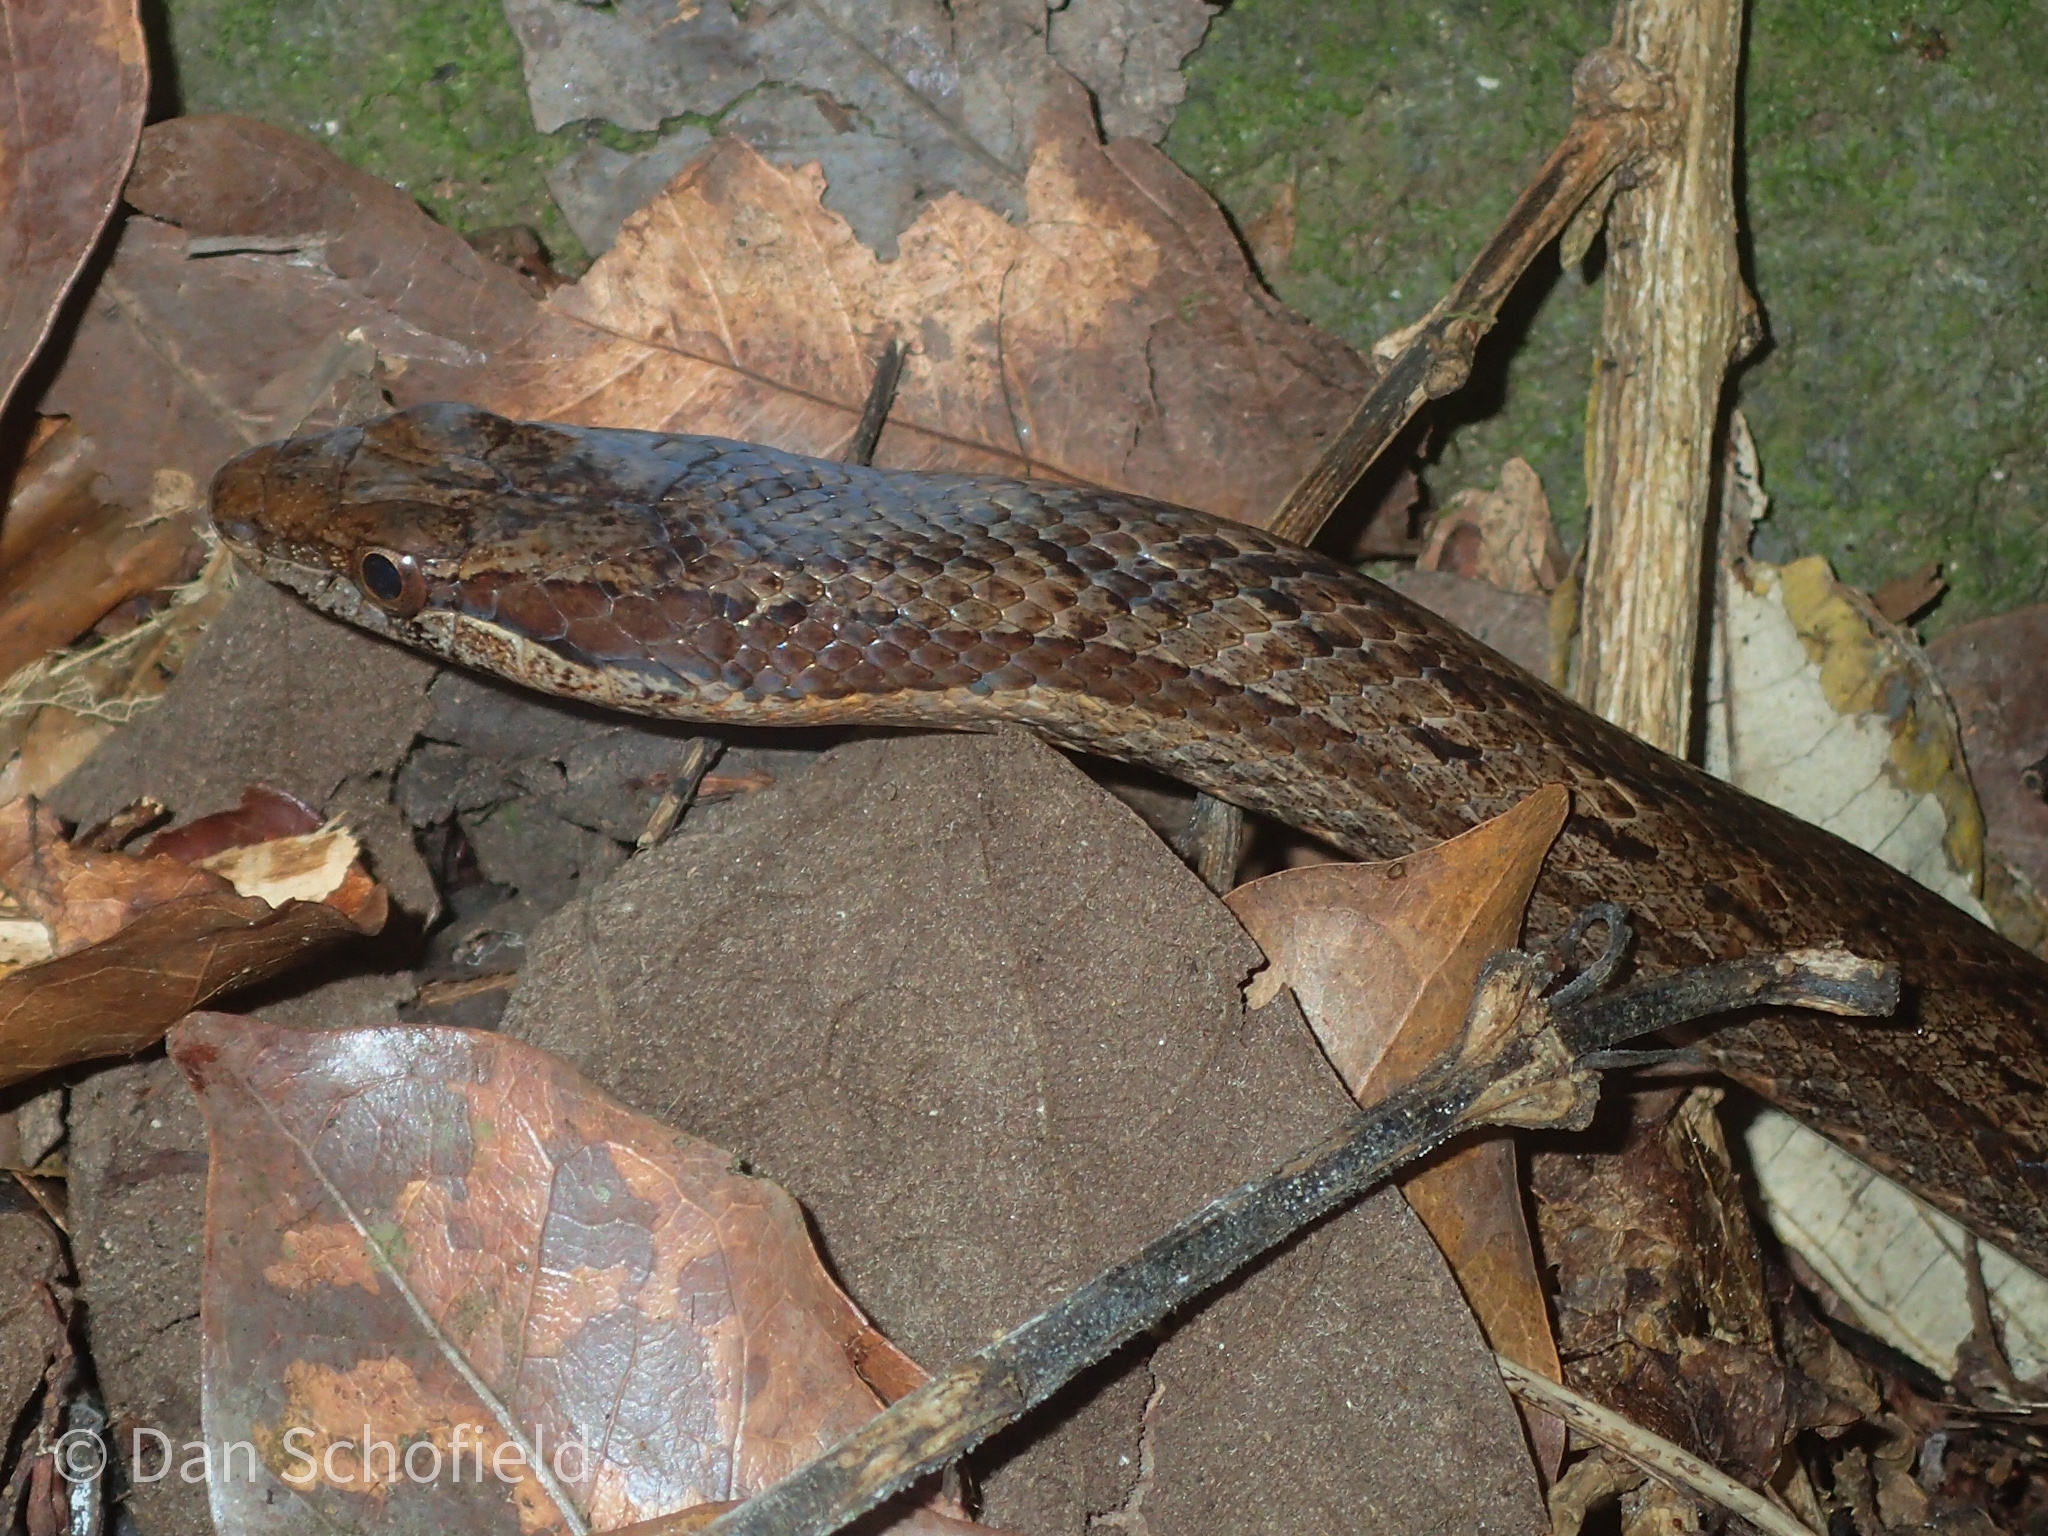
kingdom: Animalia
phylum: Chordata
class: Squamata
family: Colubridae
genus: Alsophis
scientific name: Alsophis rufiventris
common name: Orange-bellied racer
